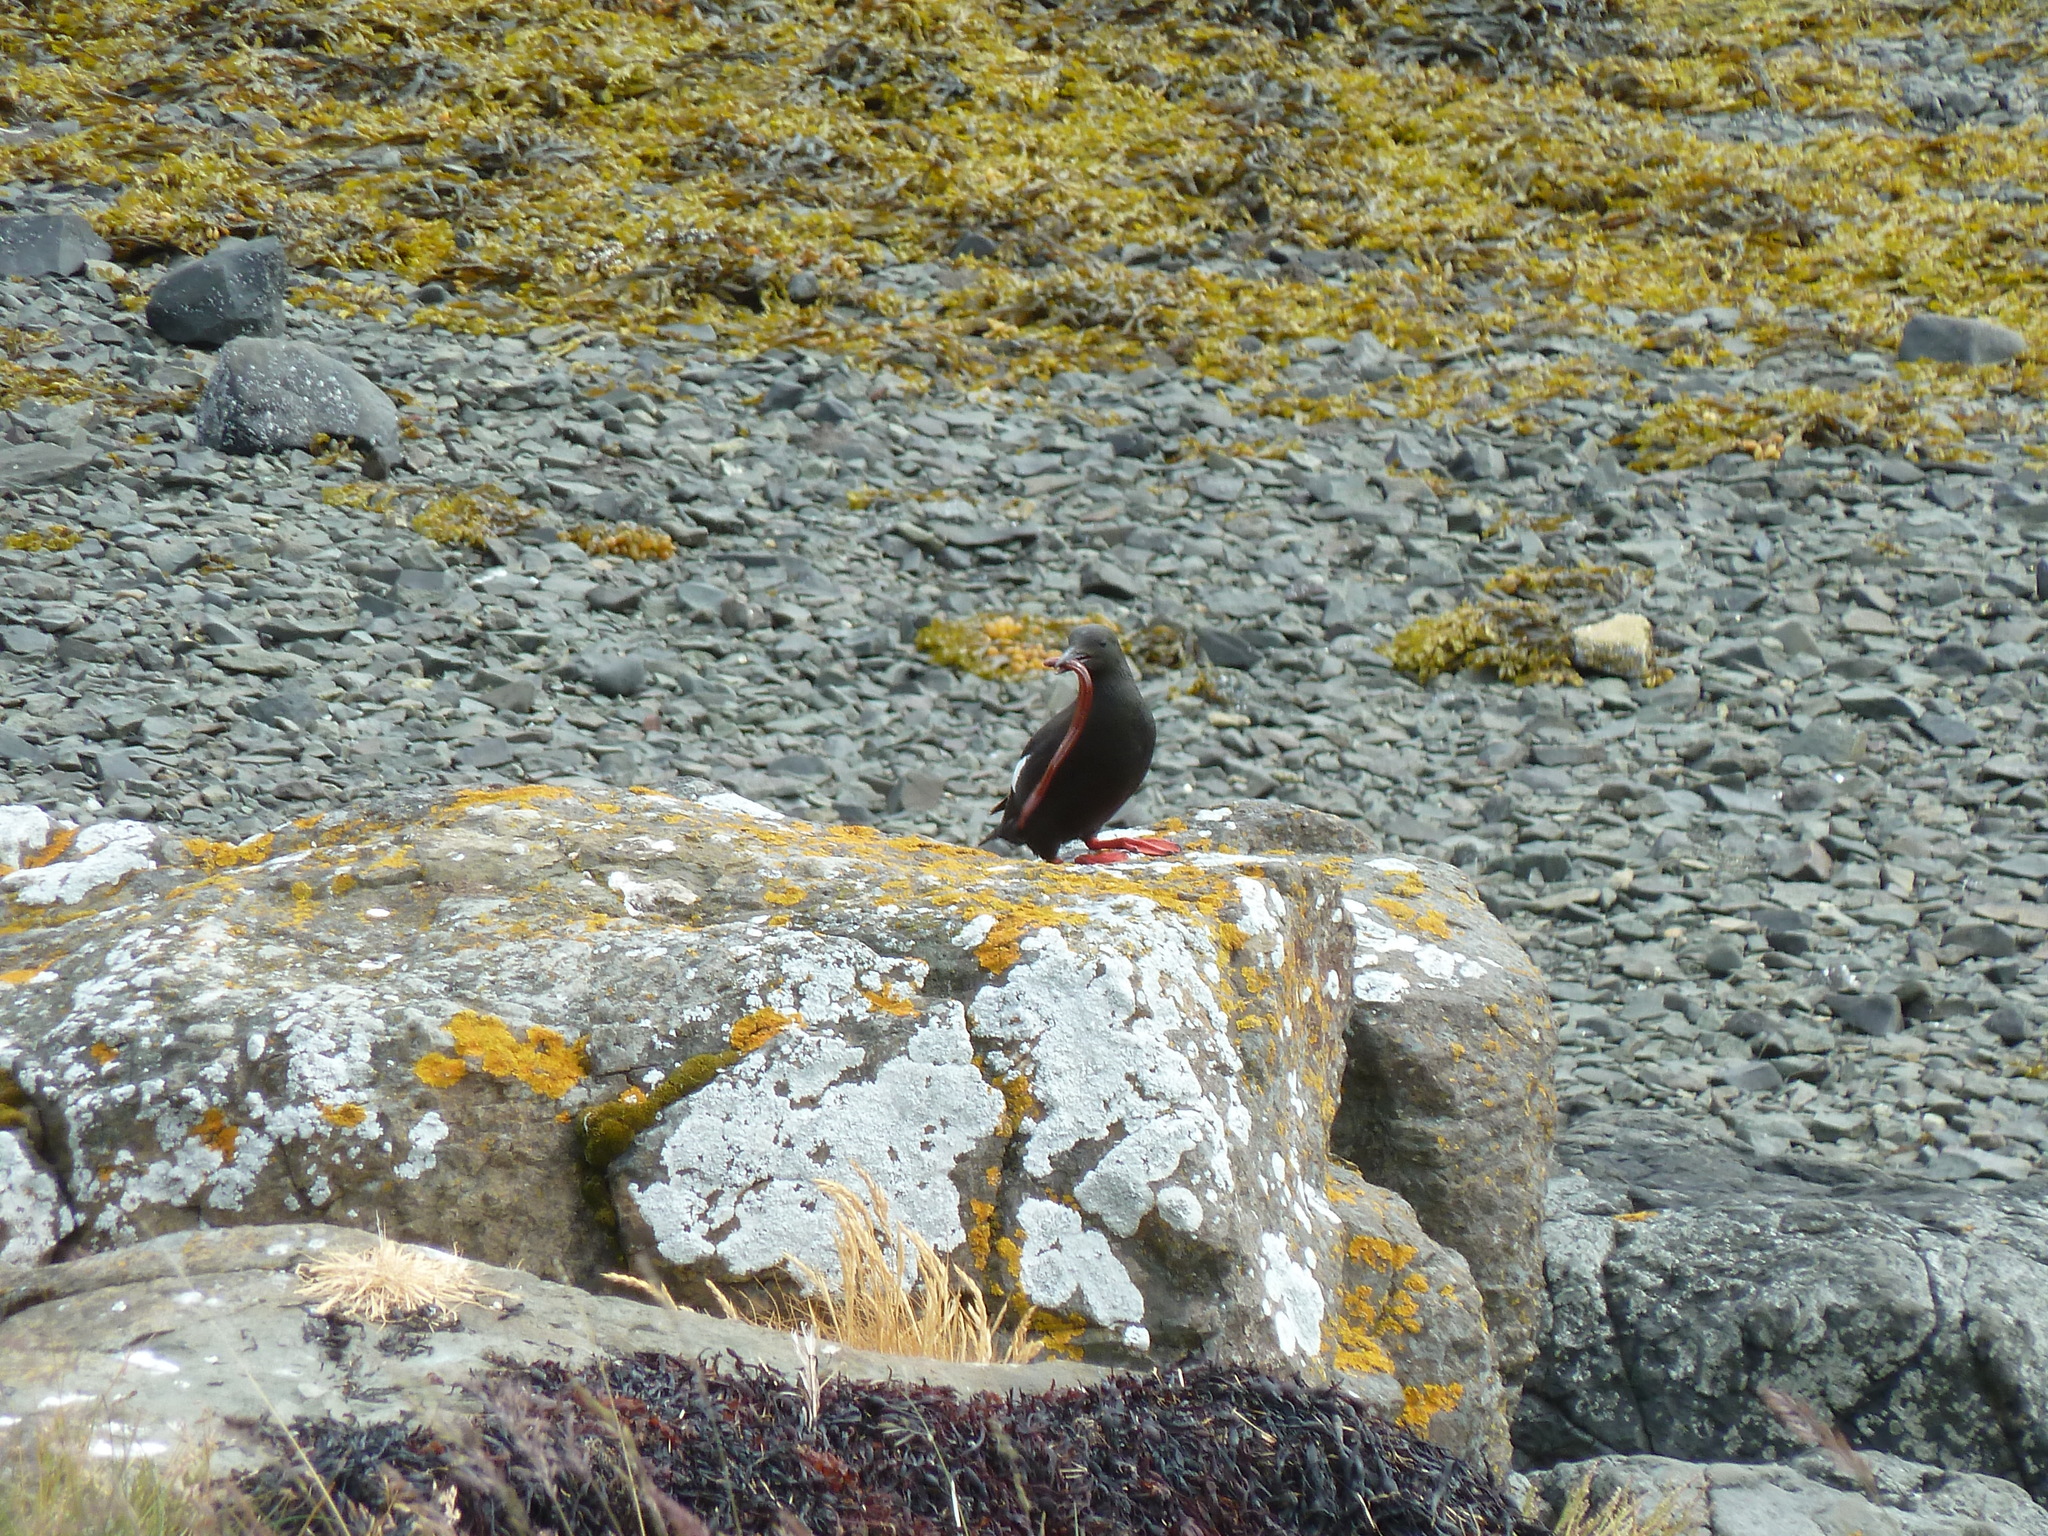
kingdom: Animalia
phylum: Chordata
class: Aves
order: Charadriiformes
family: Alcidae
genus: Cepphus
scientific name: Cepphus grylle
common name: Black guillemot
